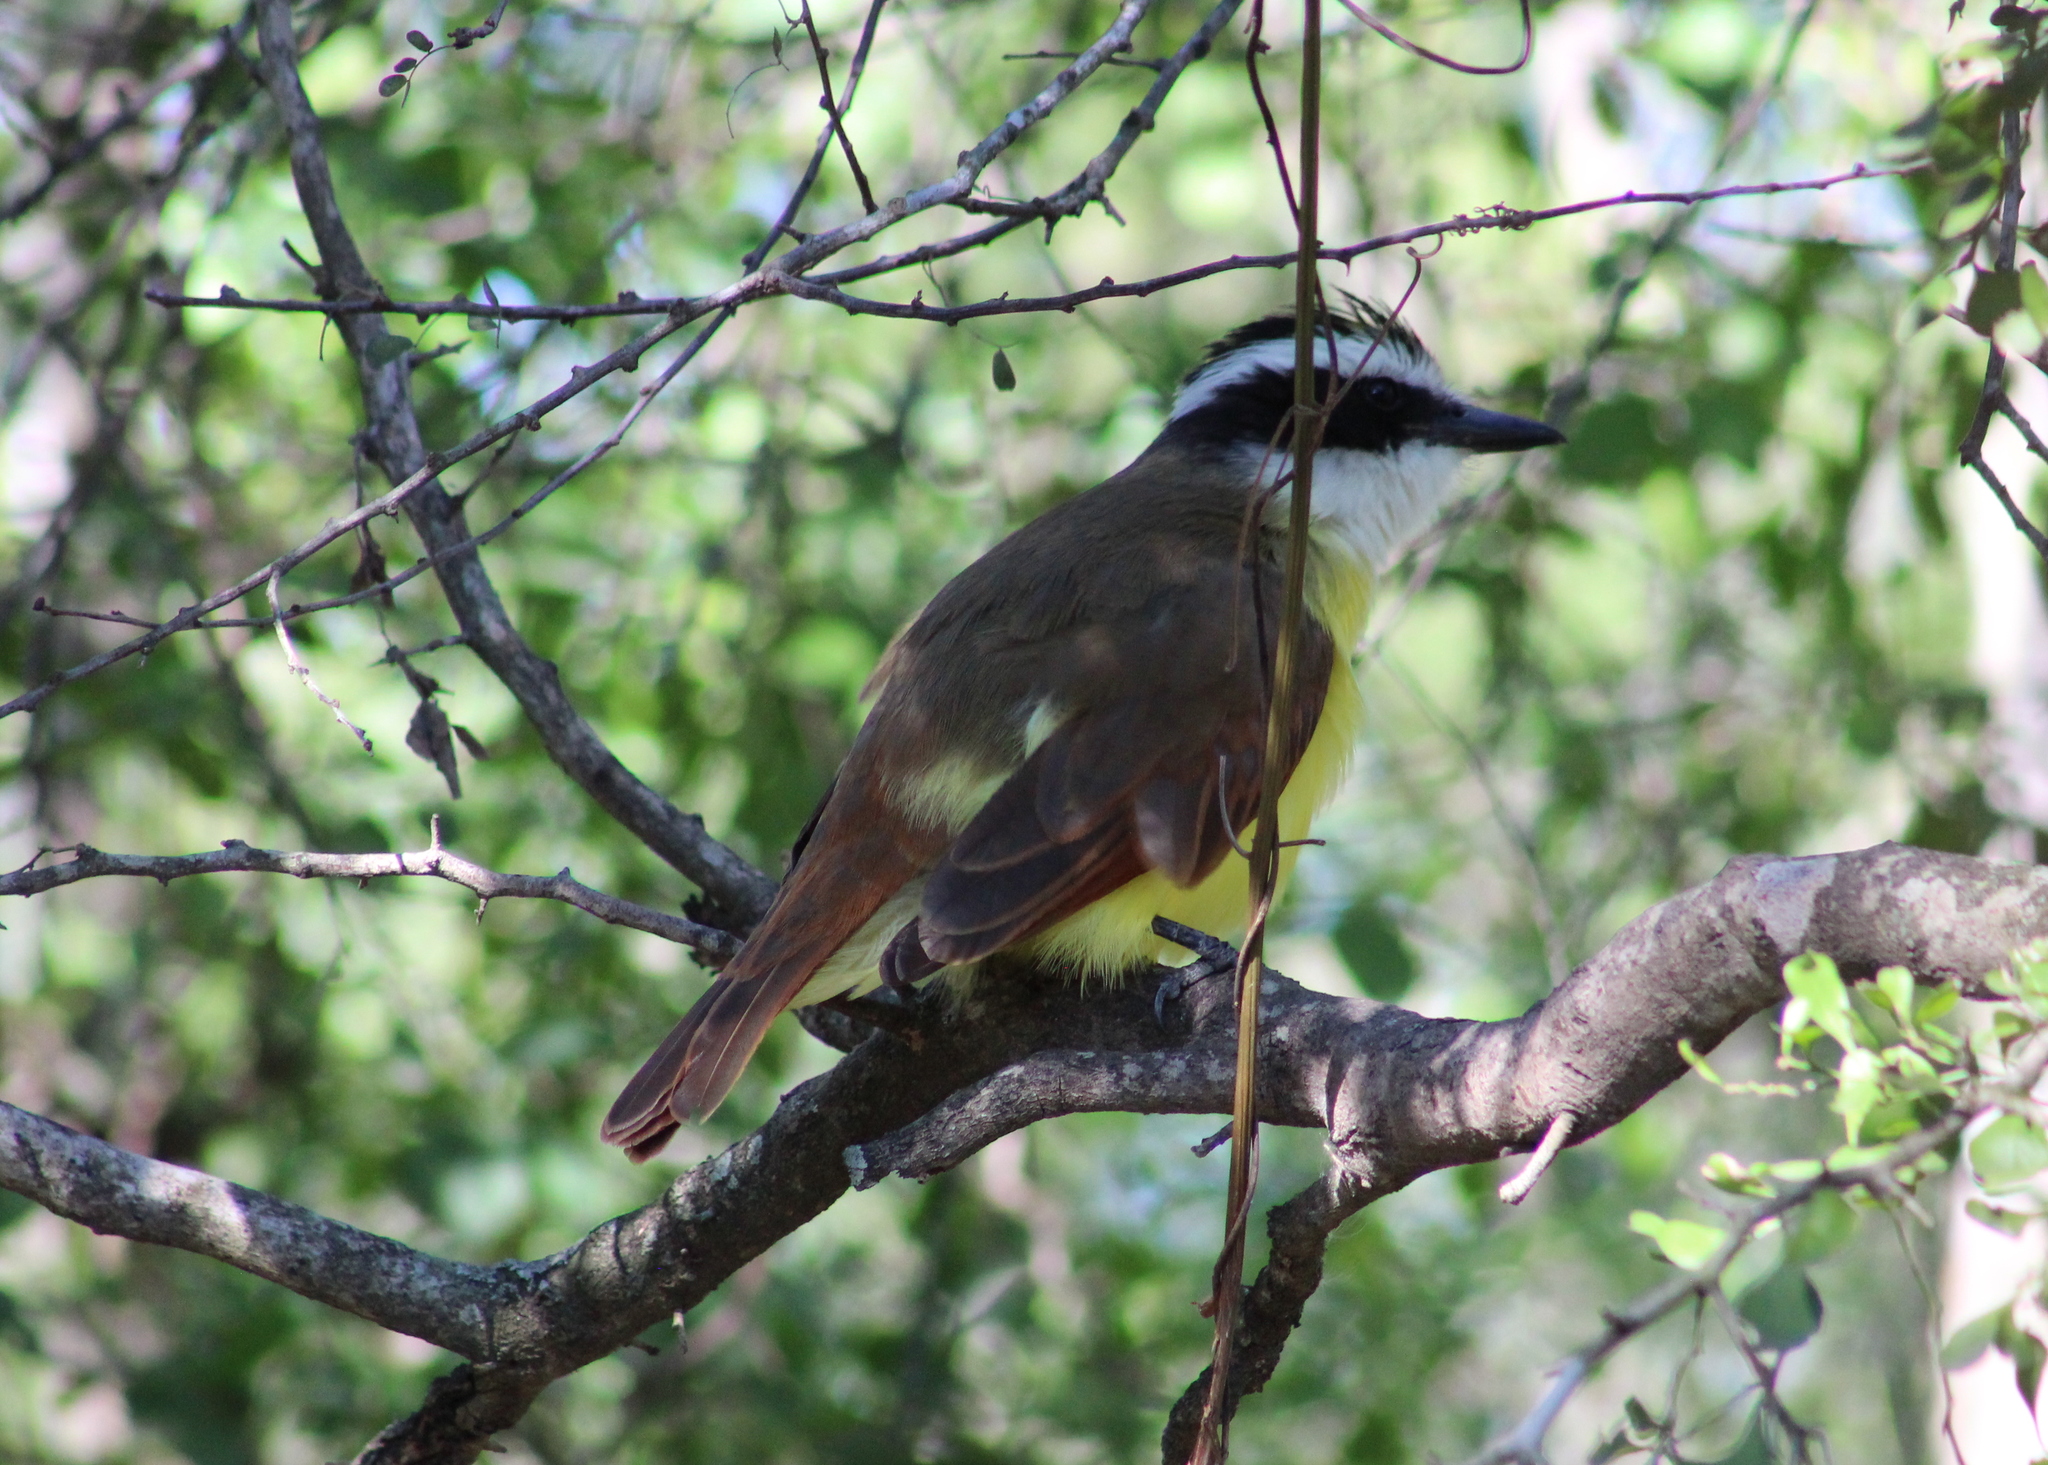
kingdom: Animalia
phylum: Chordata
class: Aves
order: Passeriformes
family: Tyrannidae
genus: Pitangus
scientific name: Pitangus sulphuratus
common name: Great kiskadee
